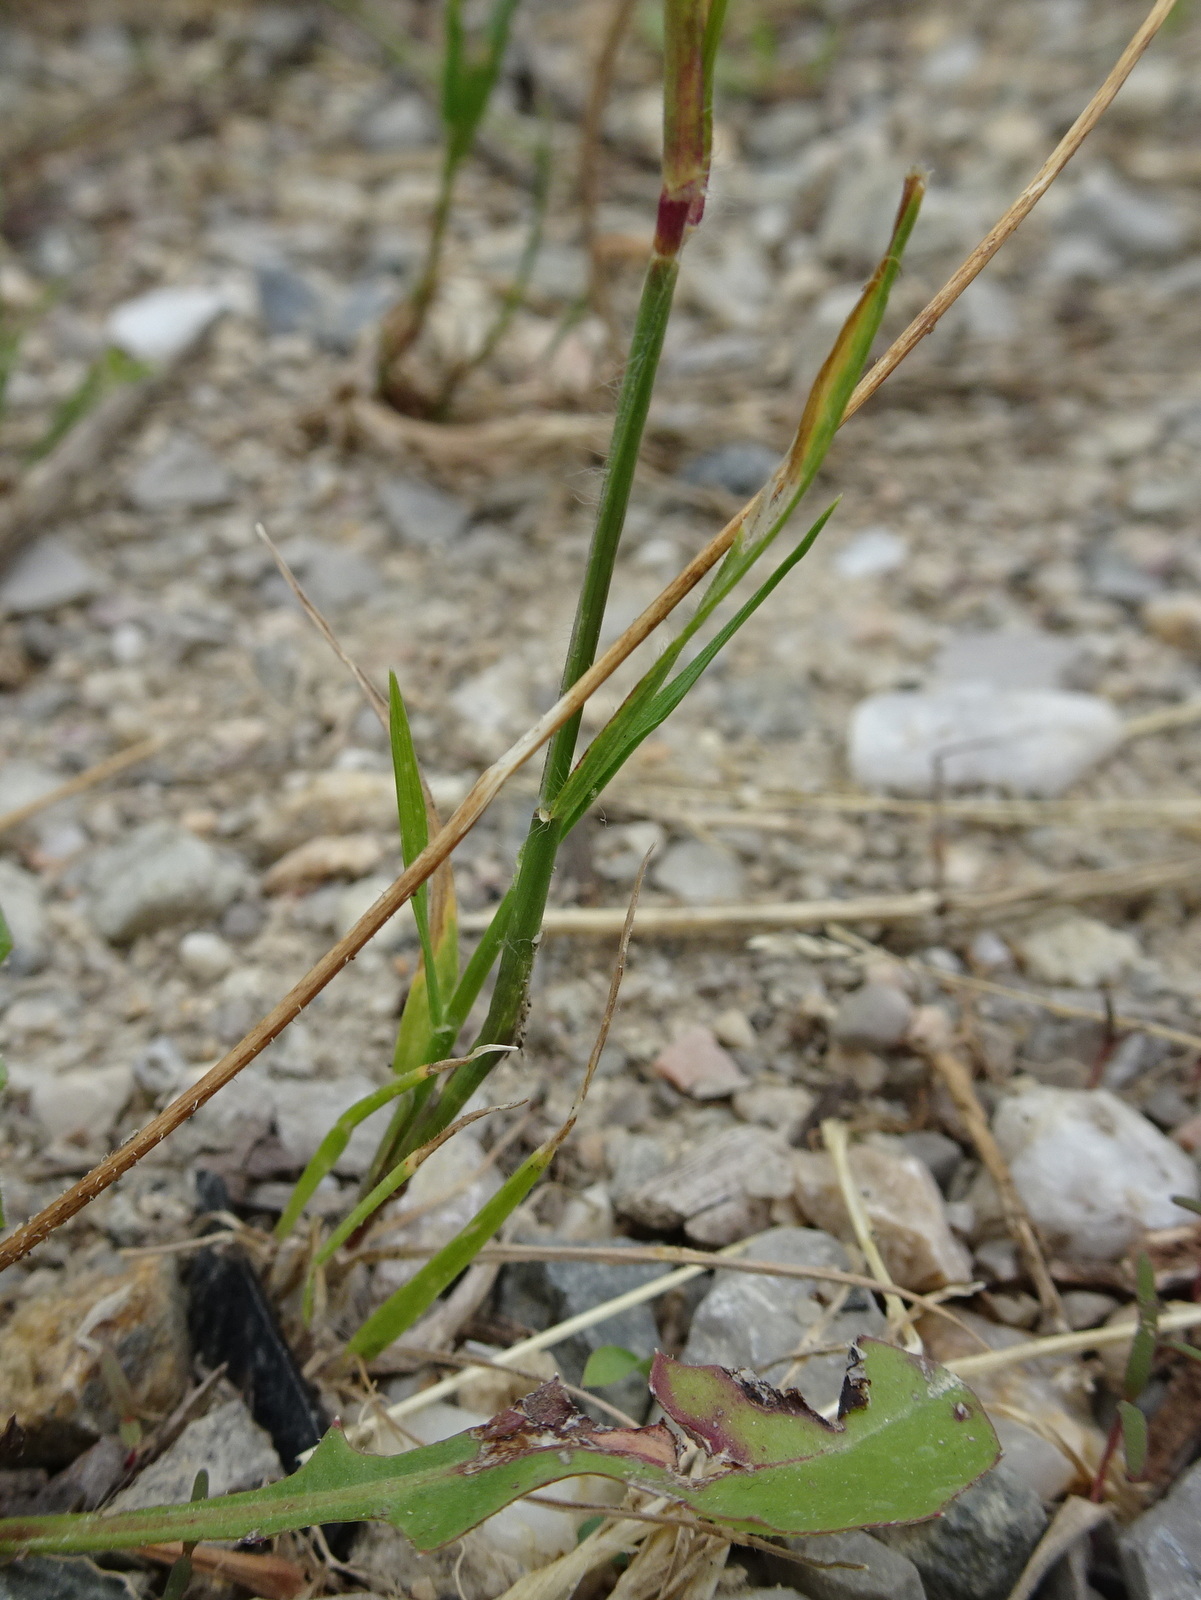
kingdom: Plantae
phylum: Tracheophyta
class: Liliopsida
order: Poales
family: Poaceae
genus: Rostraria
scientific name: Rostraria cristata
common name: Mediterranean hair-grass
